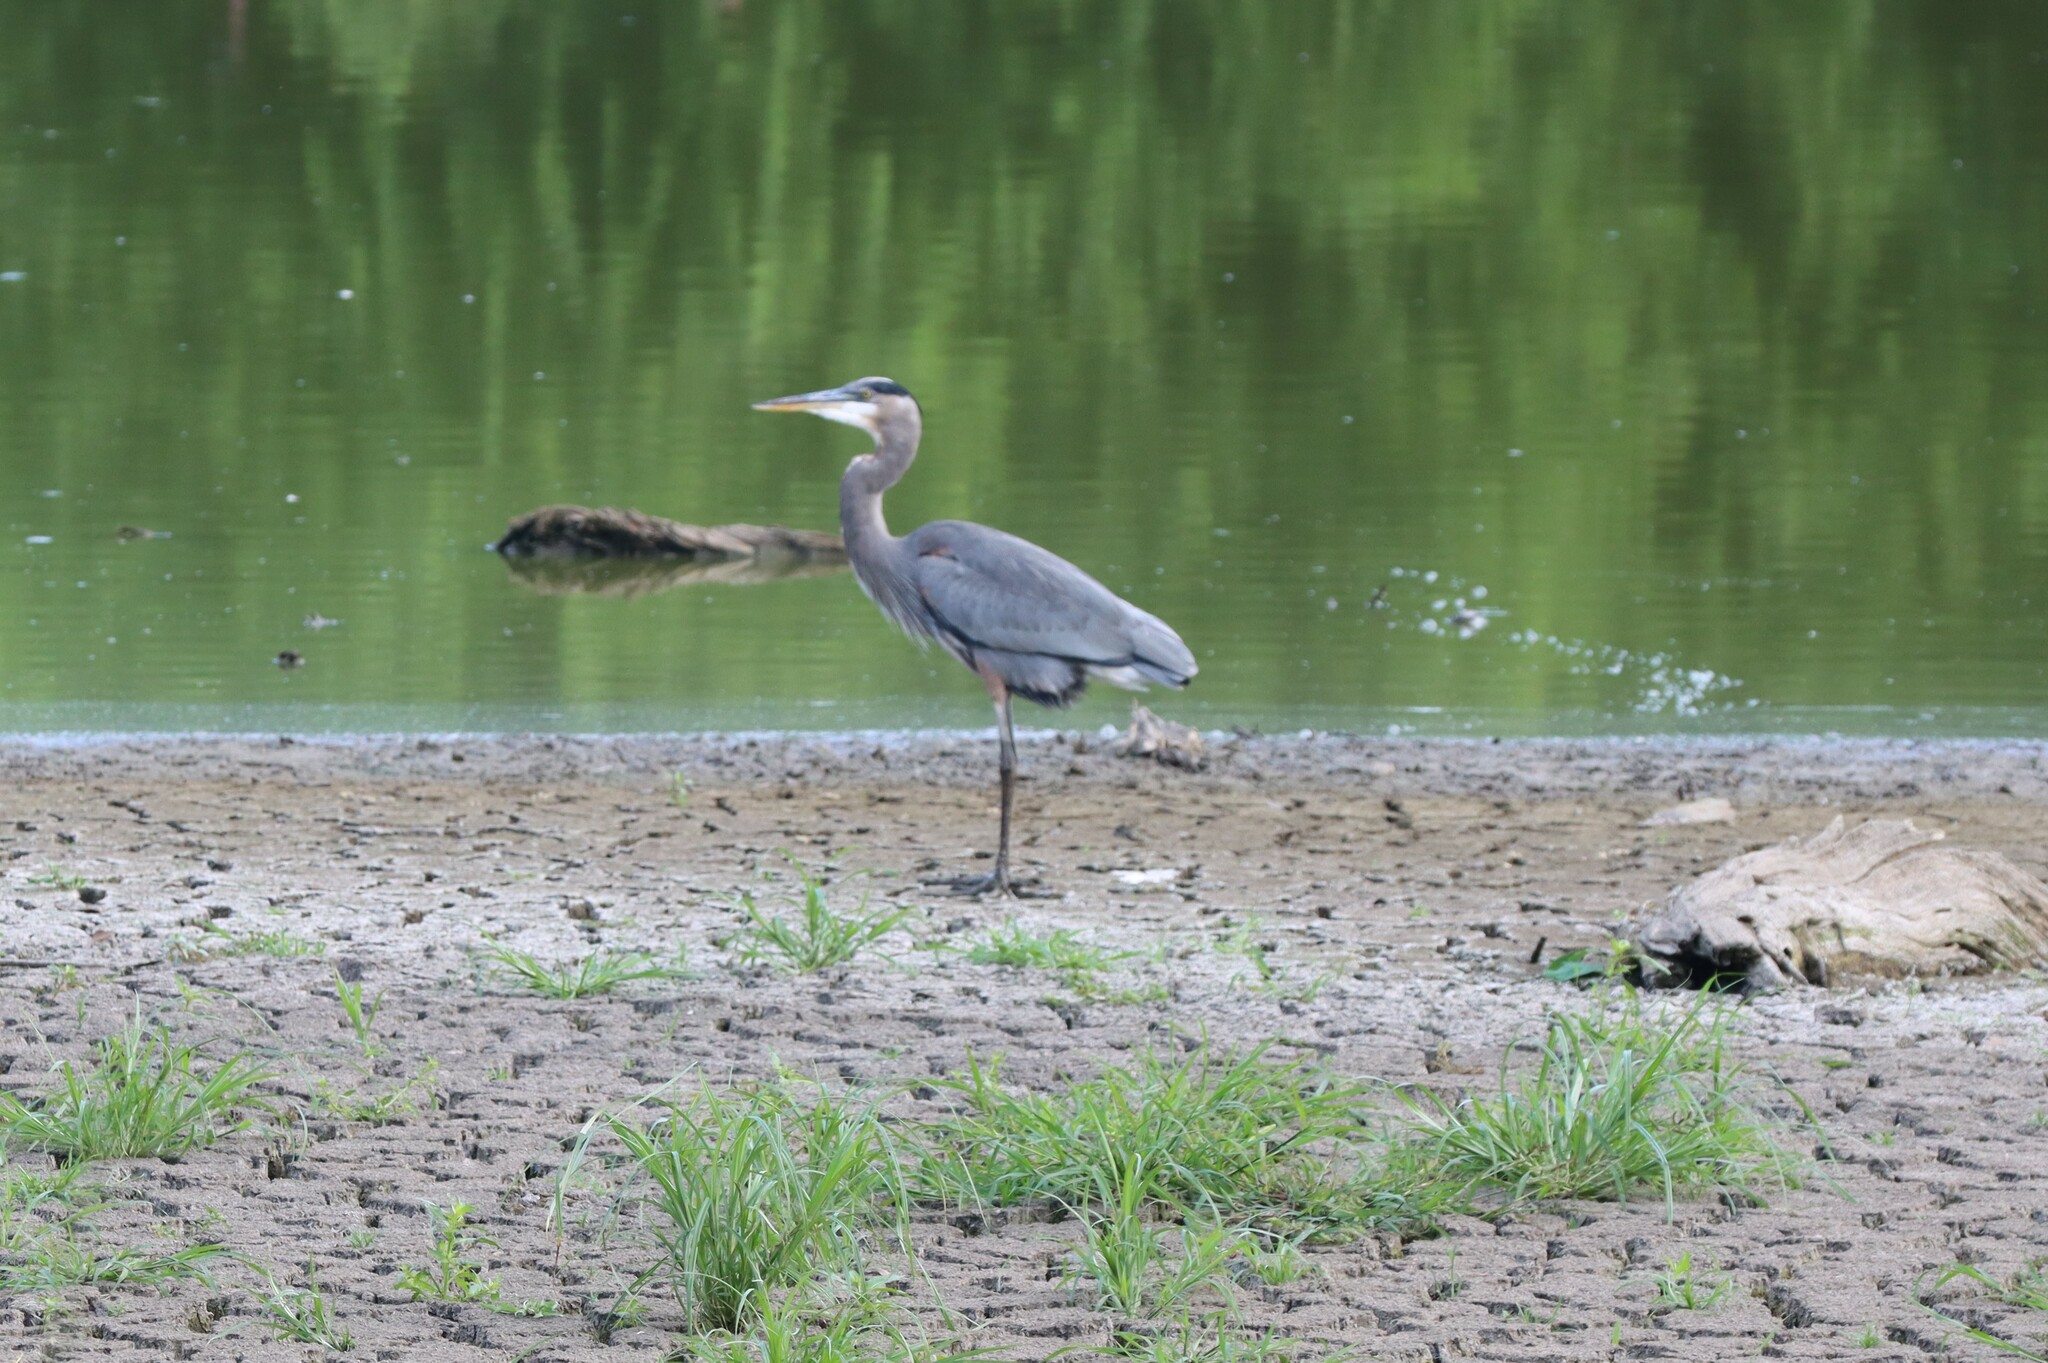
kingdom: Animalia
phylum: Chordata
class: Aves
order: Pelecaniformes
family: Ardeidae
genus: Ardea
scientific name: Ardea herodias
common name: Great blue heron
